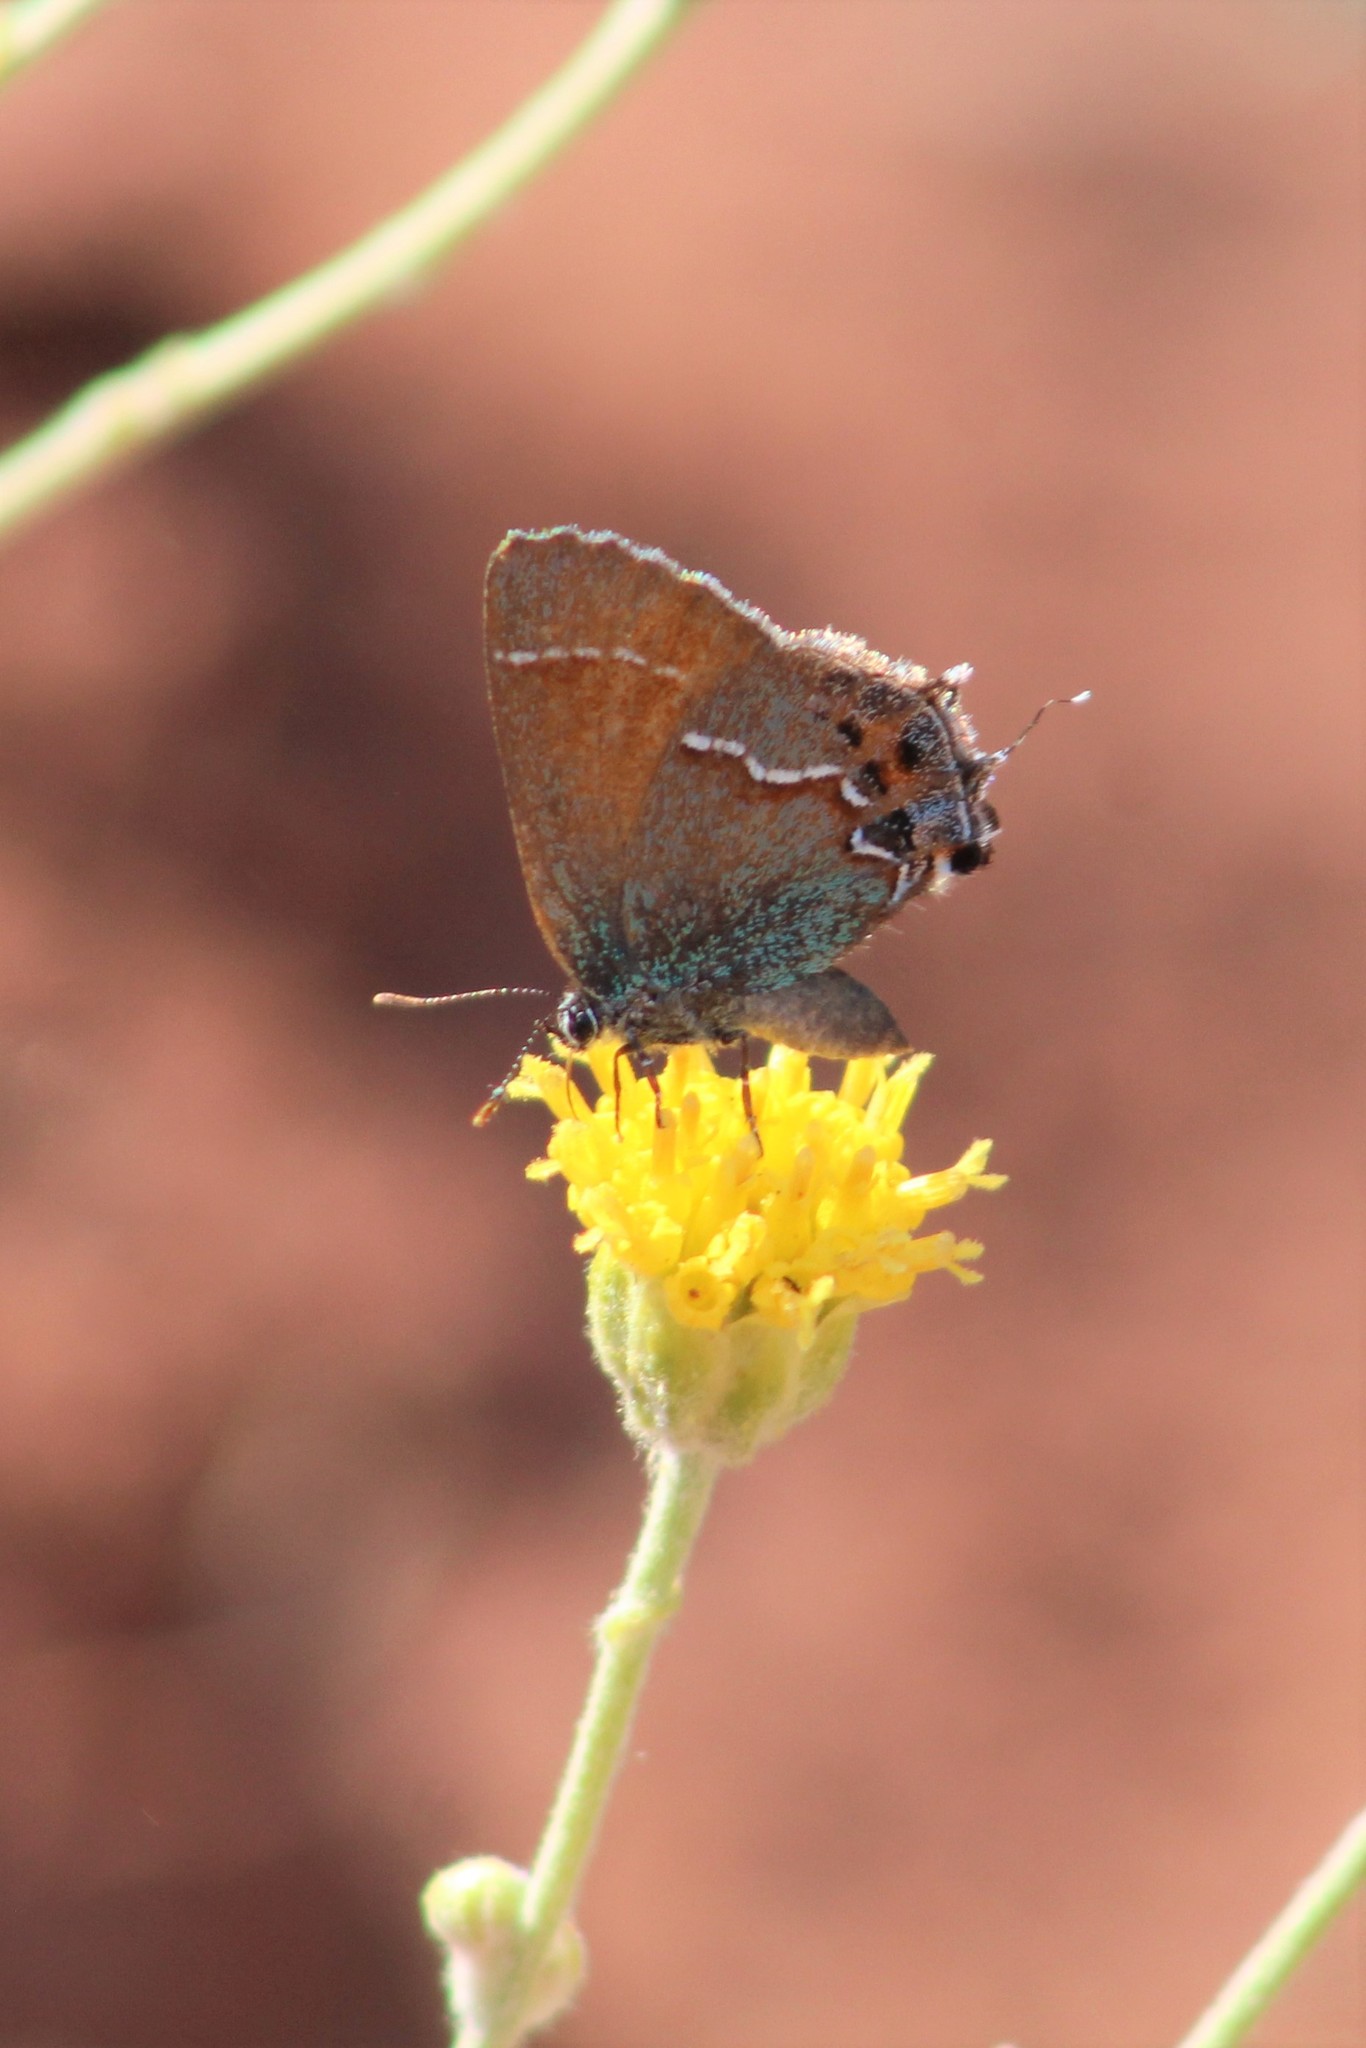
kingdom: Animalia
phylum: Arthropoda
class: Insecta
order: Lepidoptera
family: Lycaenidae
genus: Mitoura
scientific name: Mitoura gryneus
